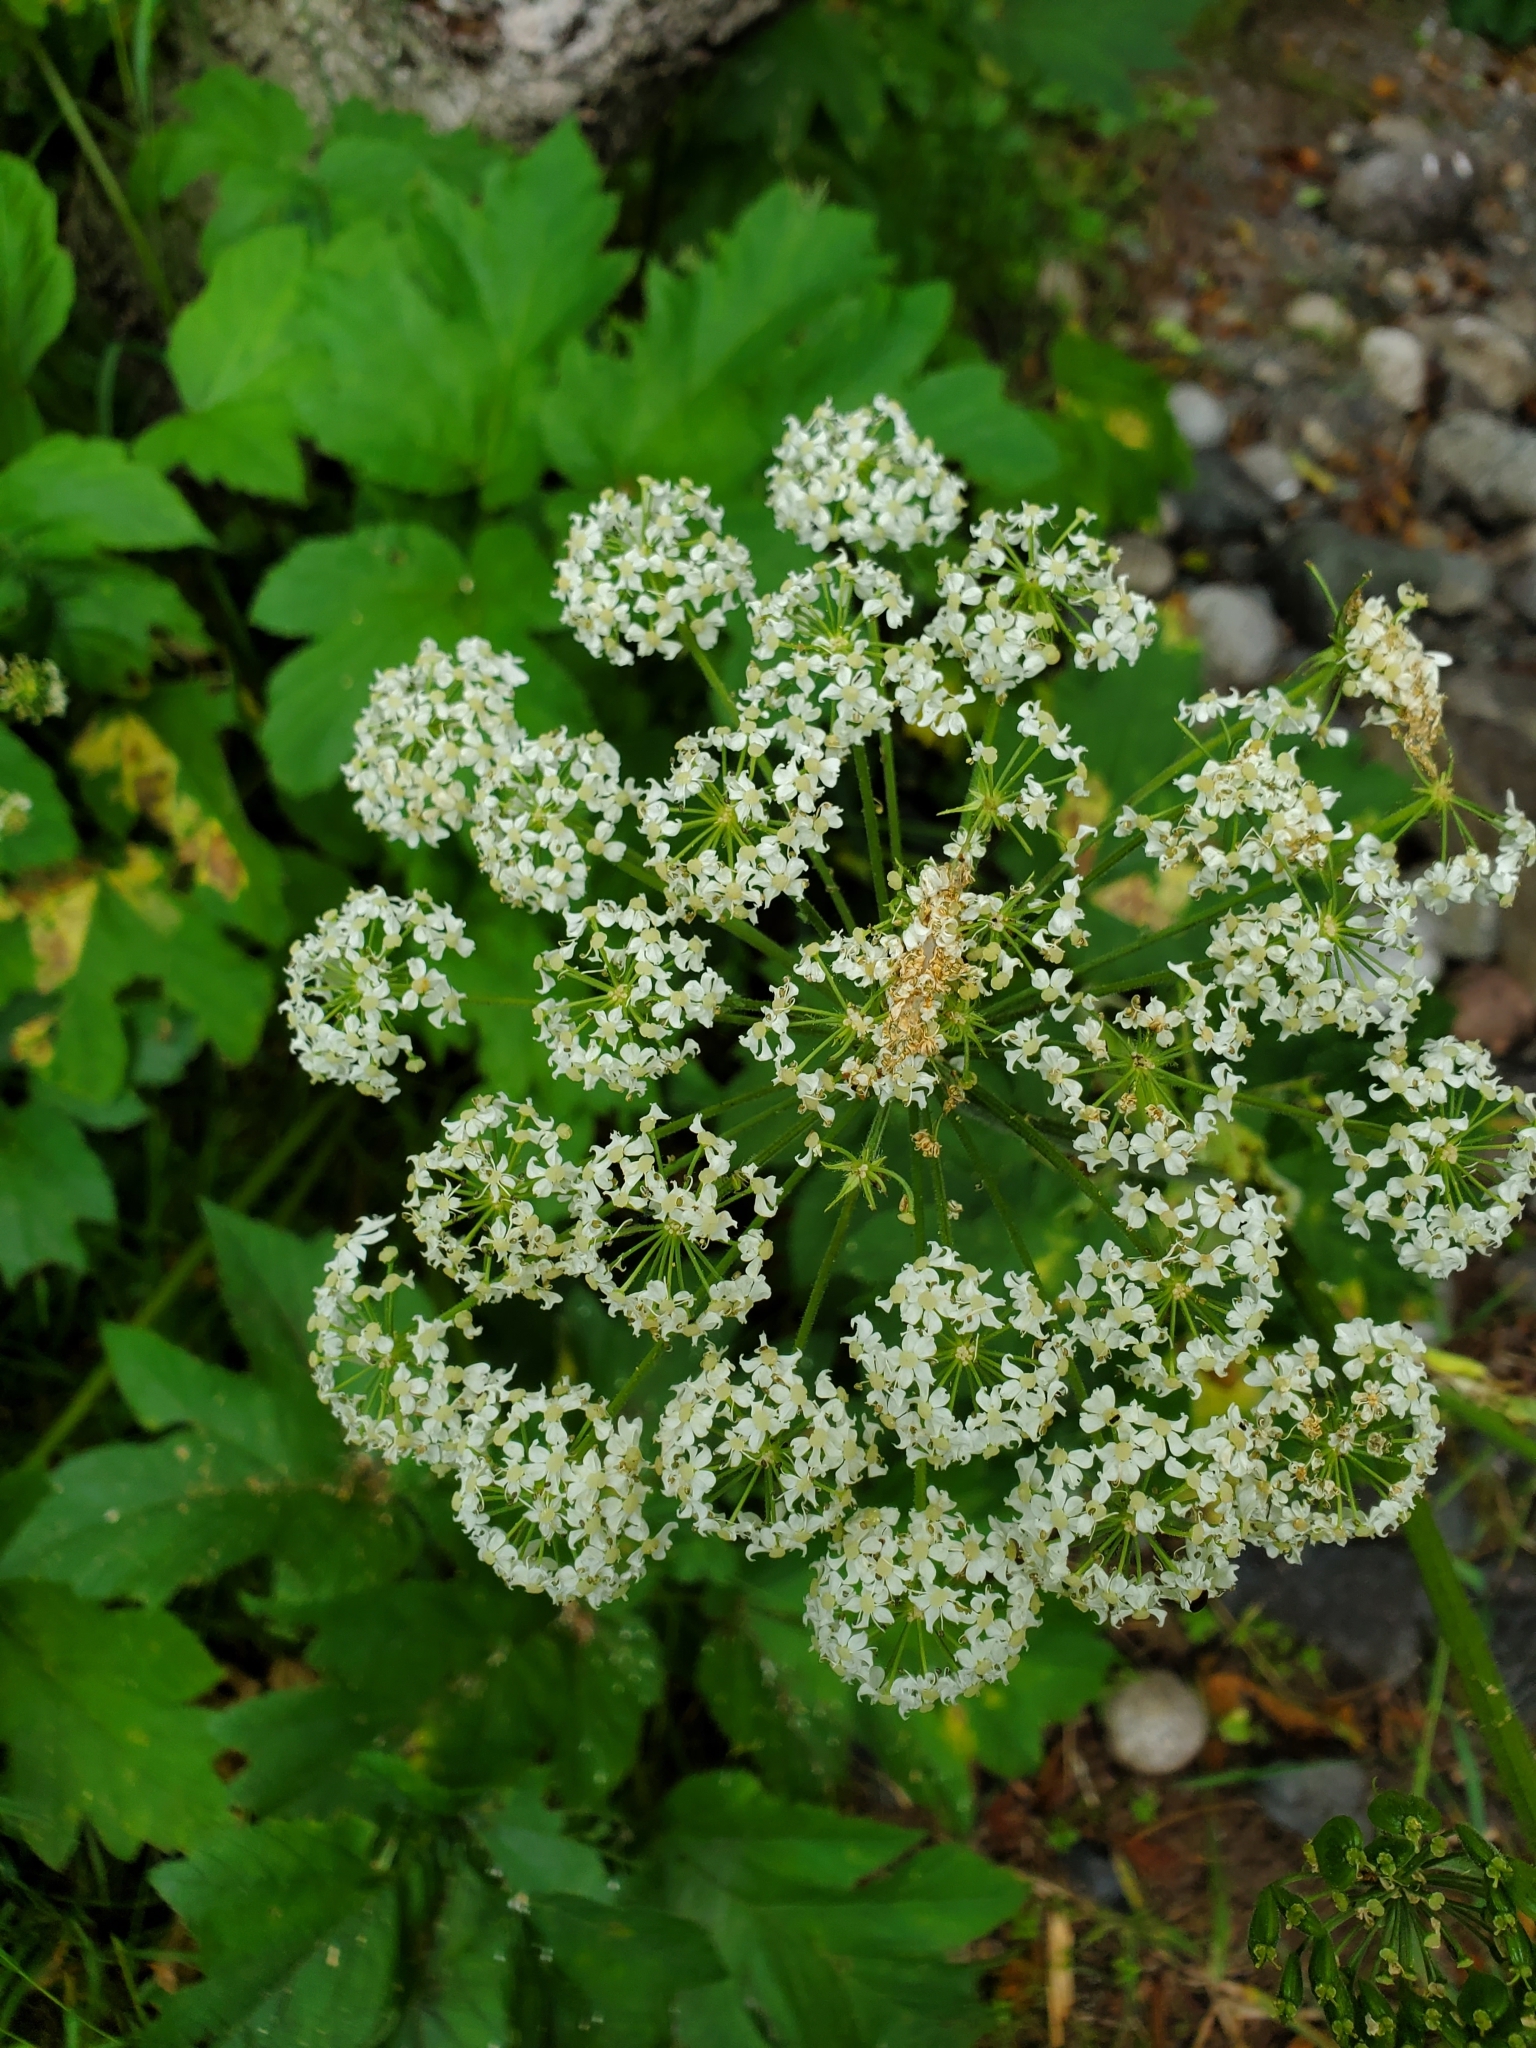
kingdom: Plantae
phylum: Tracheophyta
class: Magnoliopsida
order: Apiales
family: Apiaceae
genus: Heracleum
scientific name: Heracleum maximum
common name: American cow parsnip
